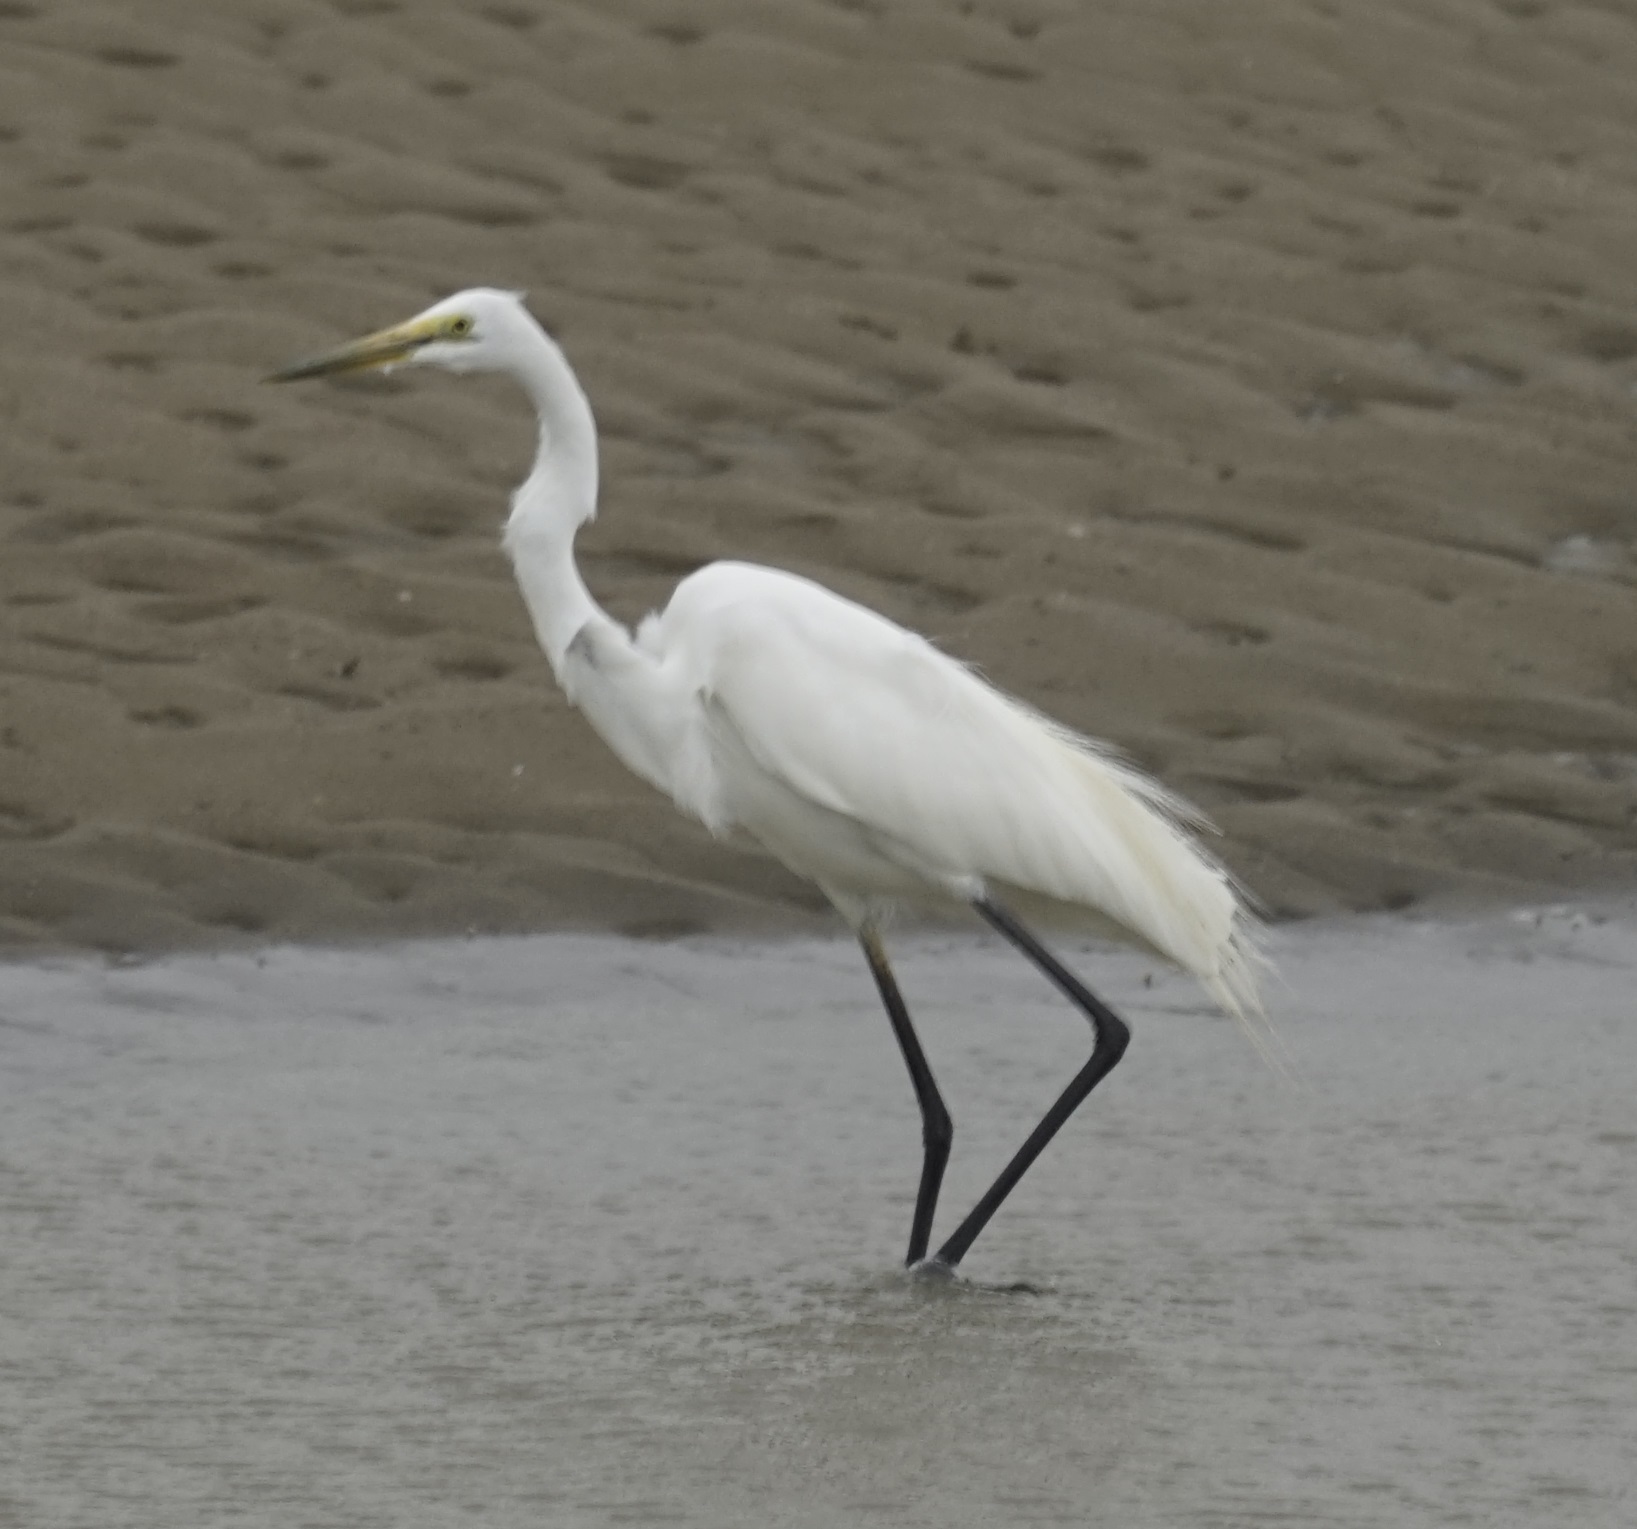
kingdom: Animalia
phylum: Chordata
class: Aves
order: Pelecaniformes
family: Ardeidae
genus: Ardea
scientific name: Ardea alba
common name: Great egret
